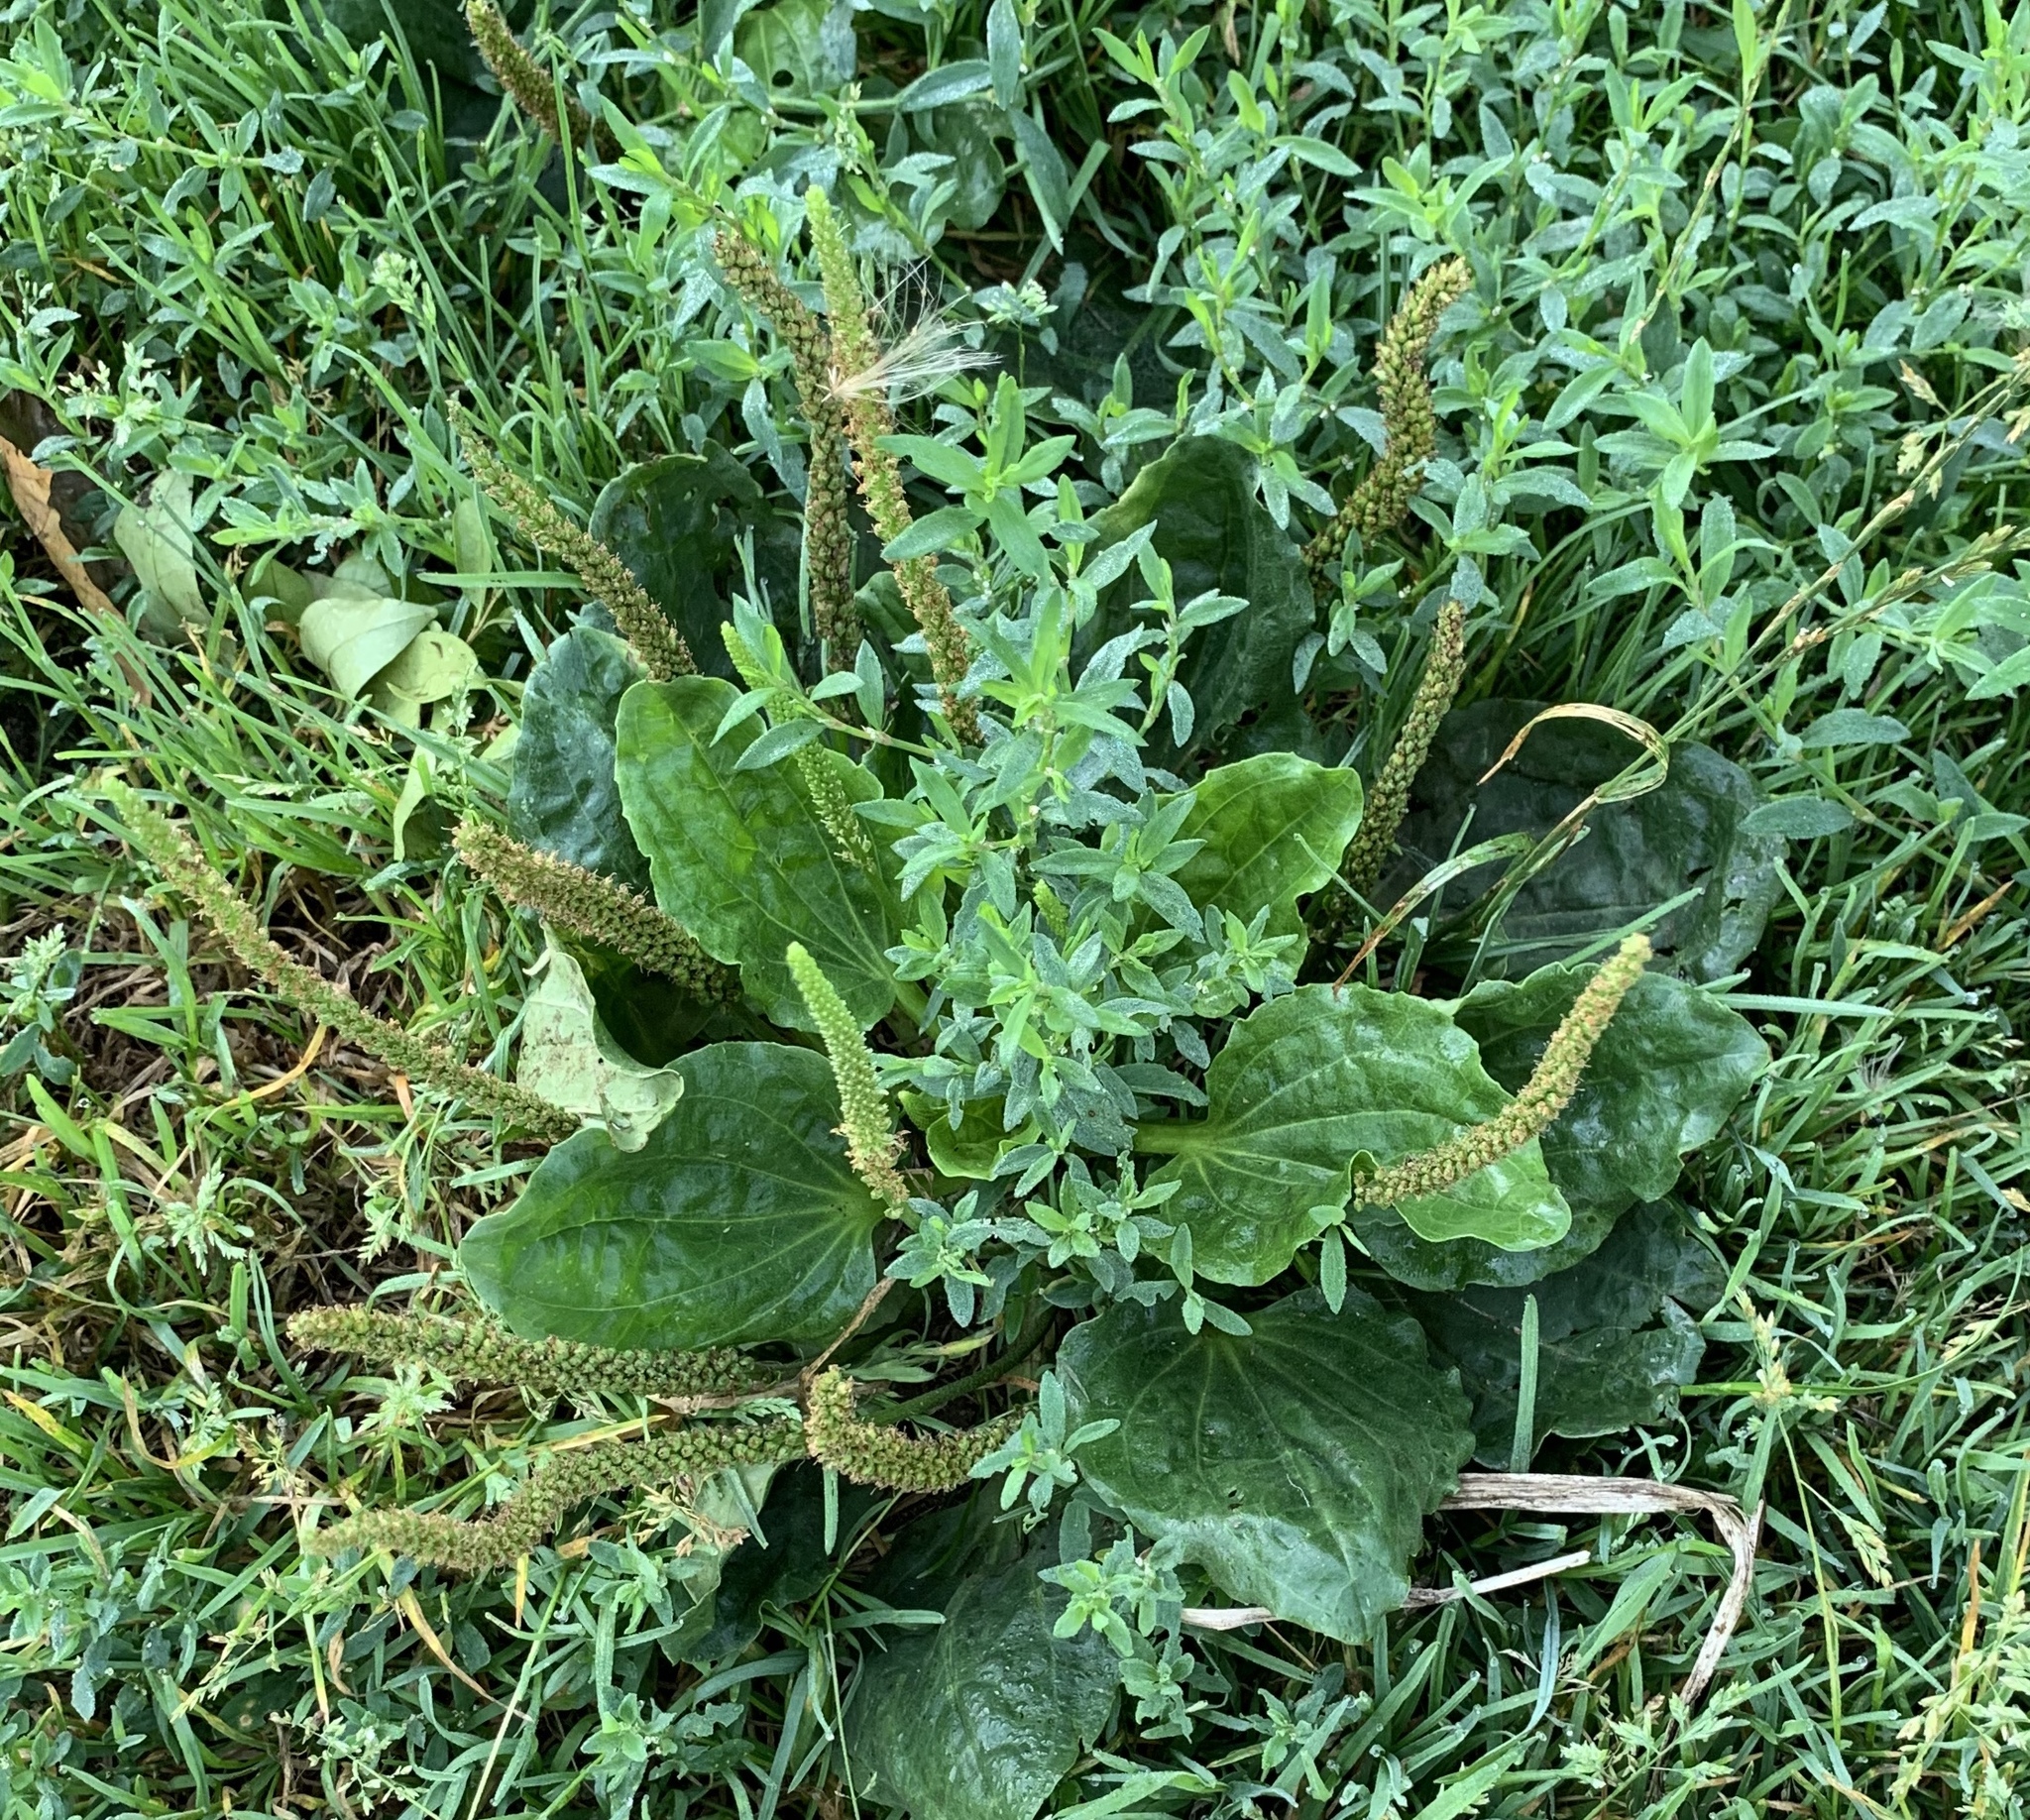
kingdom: Plantae
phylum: Tracheophyta
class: Magnoliopsida
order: Lamiales
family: Plantaginaceae
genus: Plantago
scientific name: Plantago major
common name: Common plantain
